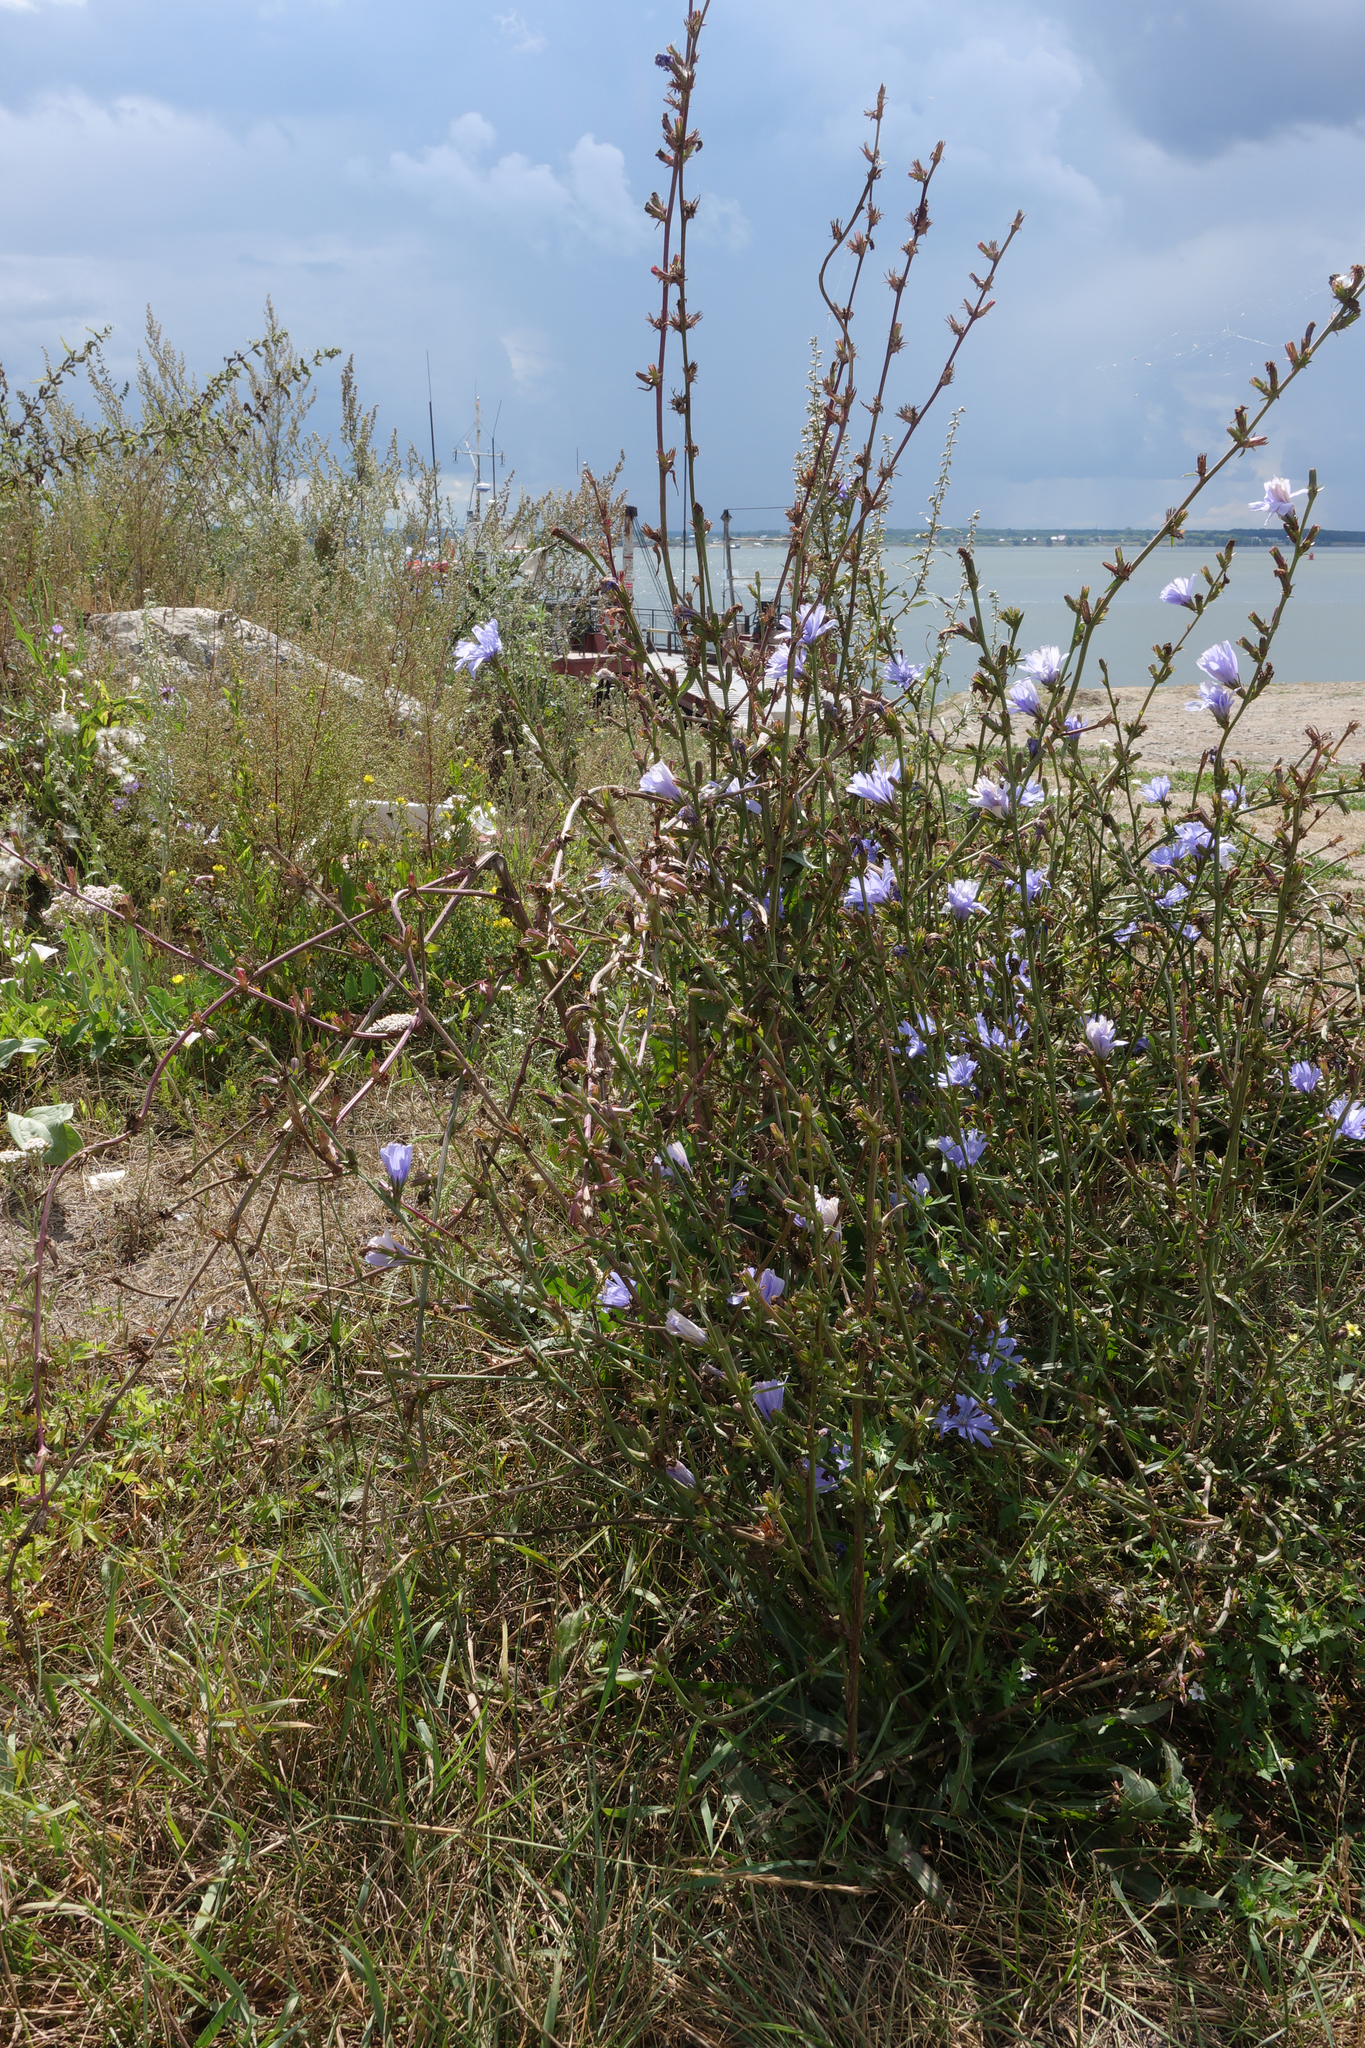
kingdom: Plantae
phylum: Tracheophyta
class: Magnoliopsida
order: Asterales
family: Asteraceae
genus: Cichorium
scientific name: Cichorium intybus
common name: Chicory
